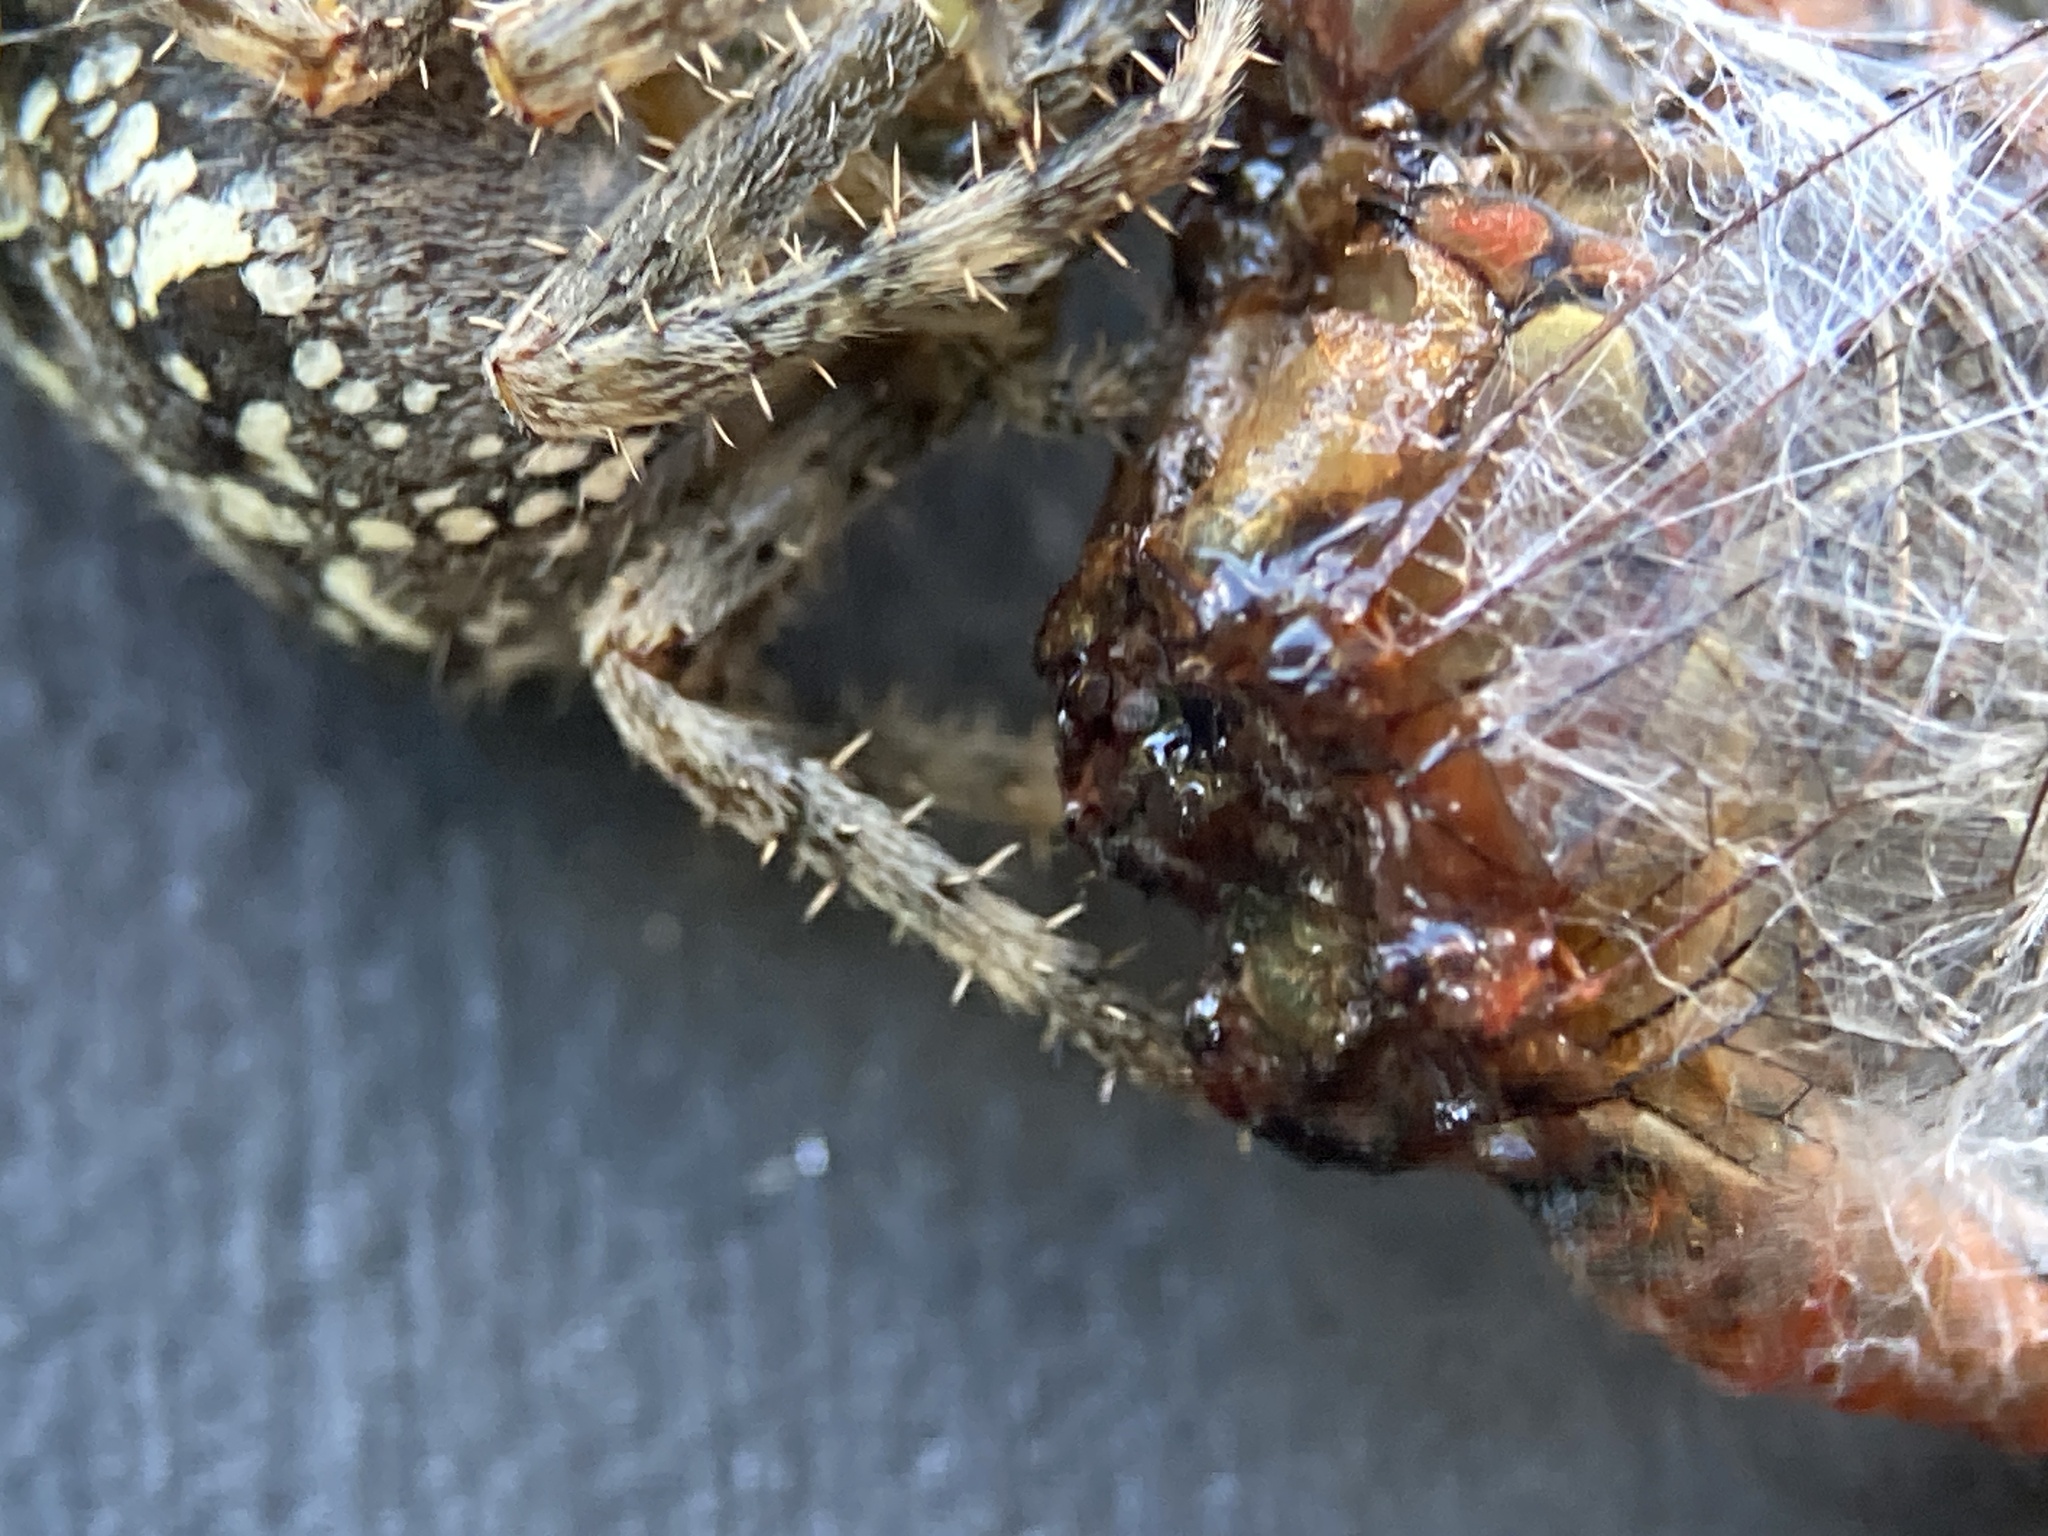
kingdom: Animalia
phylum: Arthropoda
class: Arachnida
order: Araneae
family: Araneidae
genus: Araneus
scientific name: Araneus diadematus
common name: Cross orbweaver
